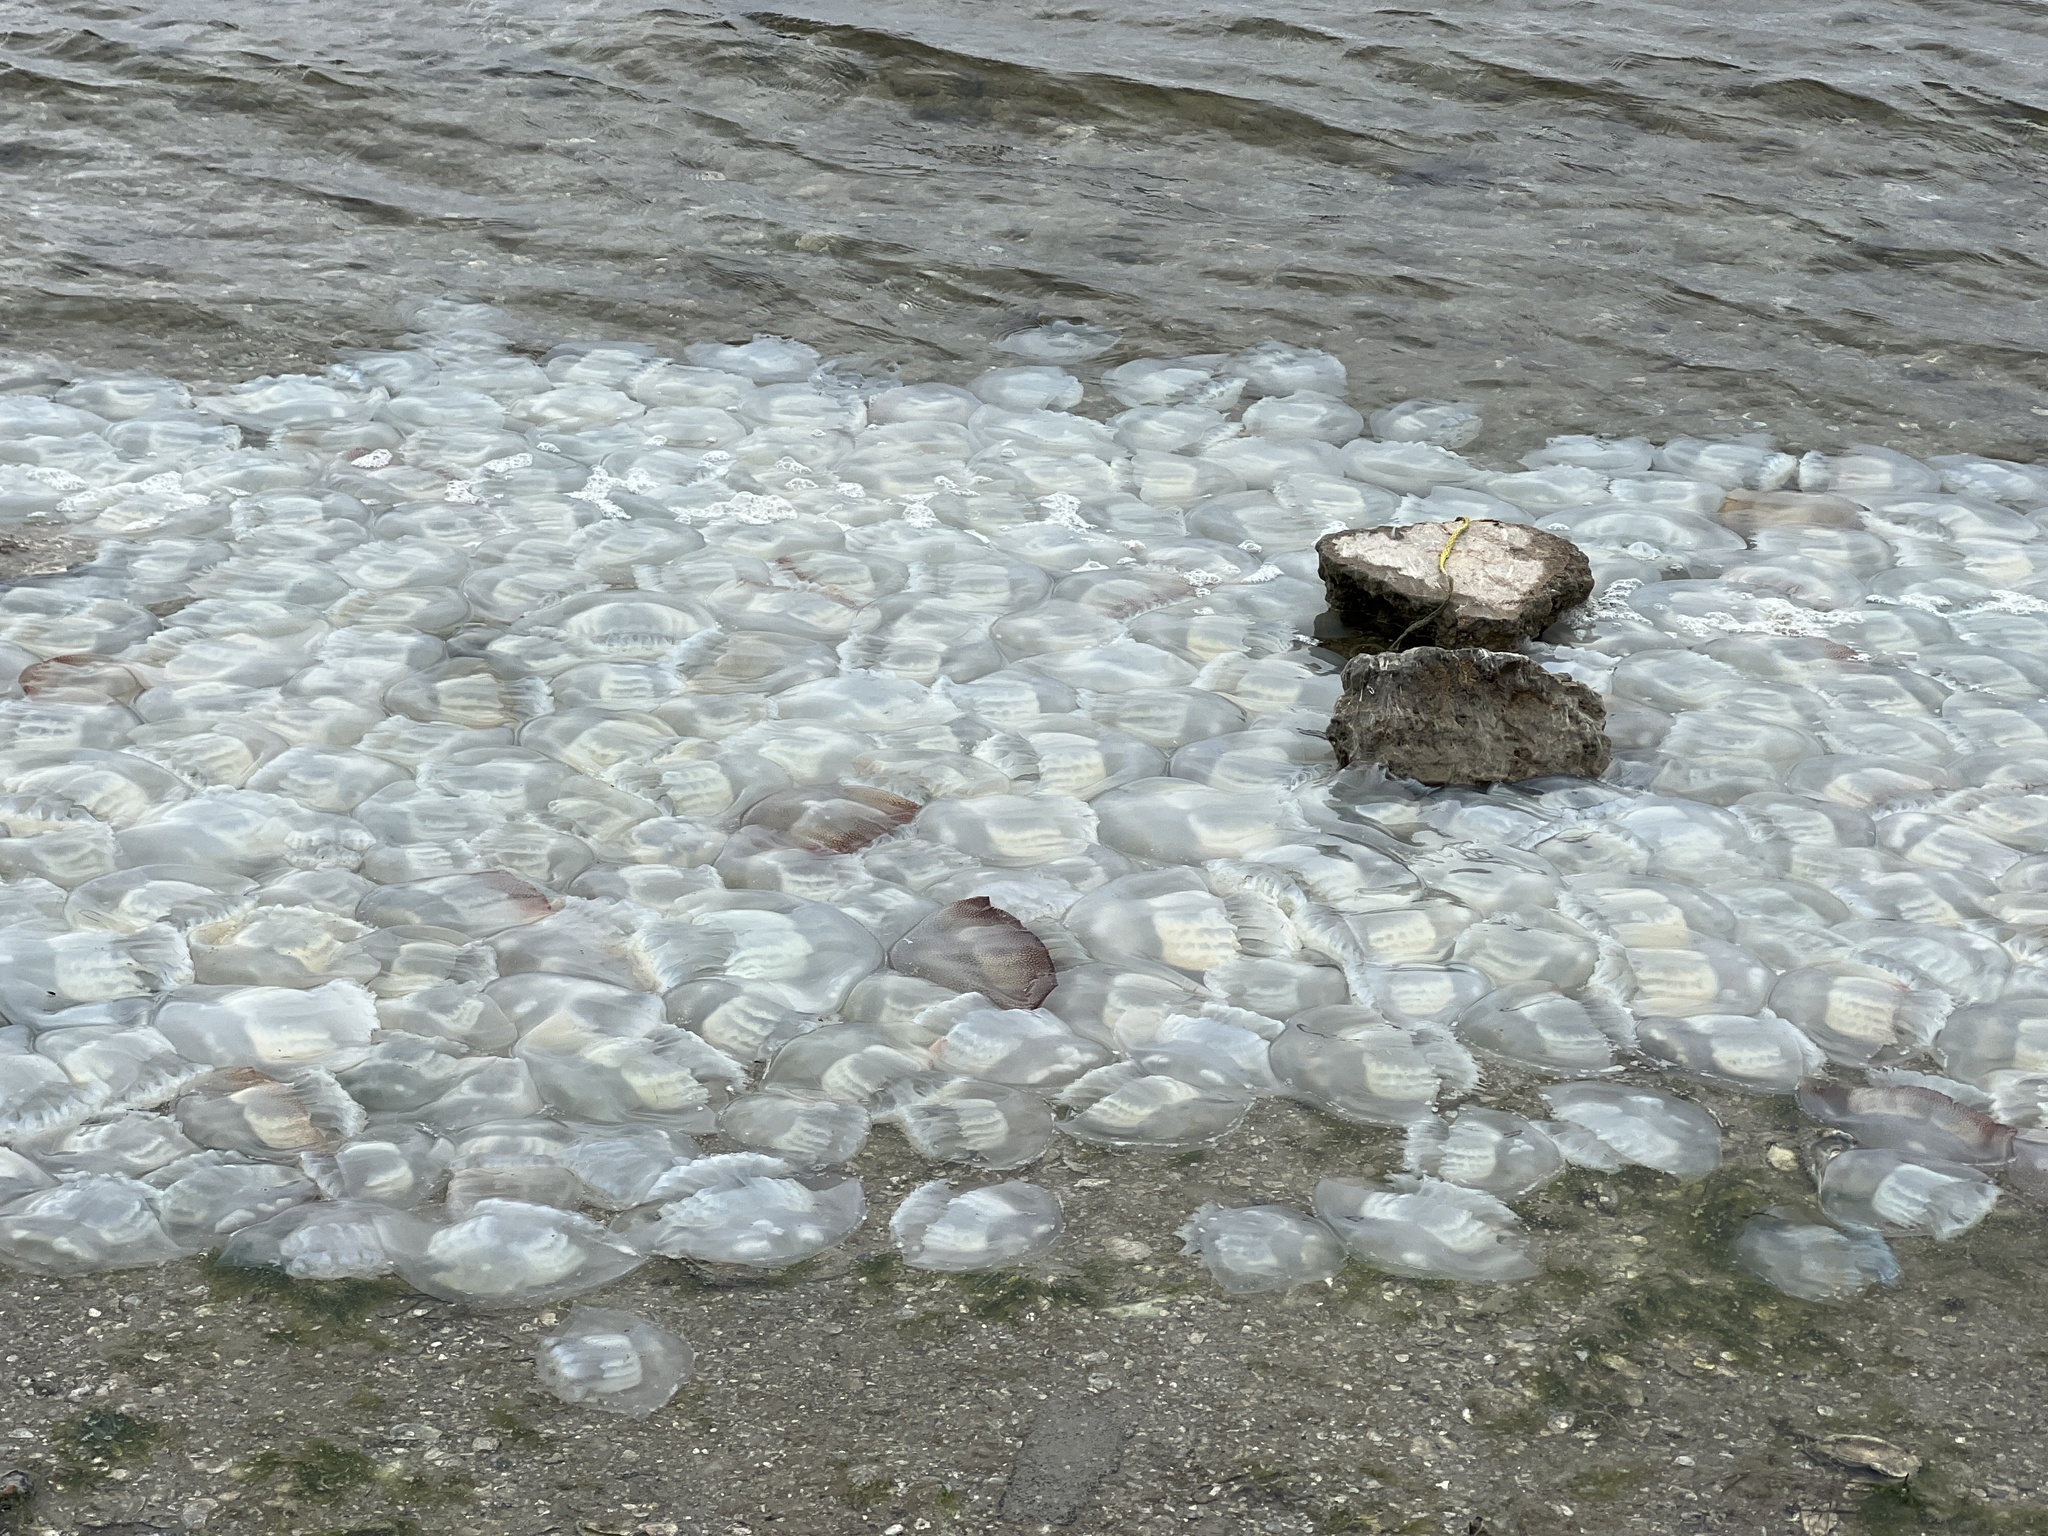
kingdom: Animalia
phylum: Cnidaria
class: Scyphozoa
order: Rhizostomeae
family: Stomolophidae
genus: Stomolophus
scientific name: Stomolophus meleagris
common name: Cabbagehead
